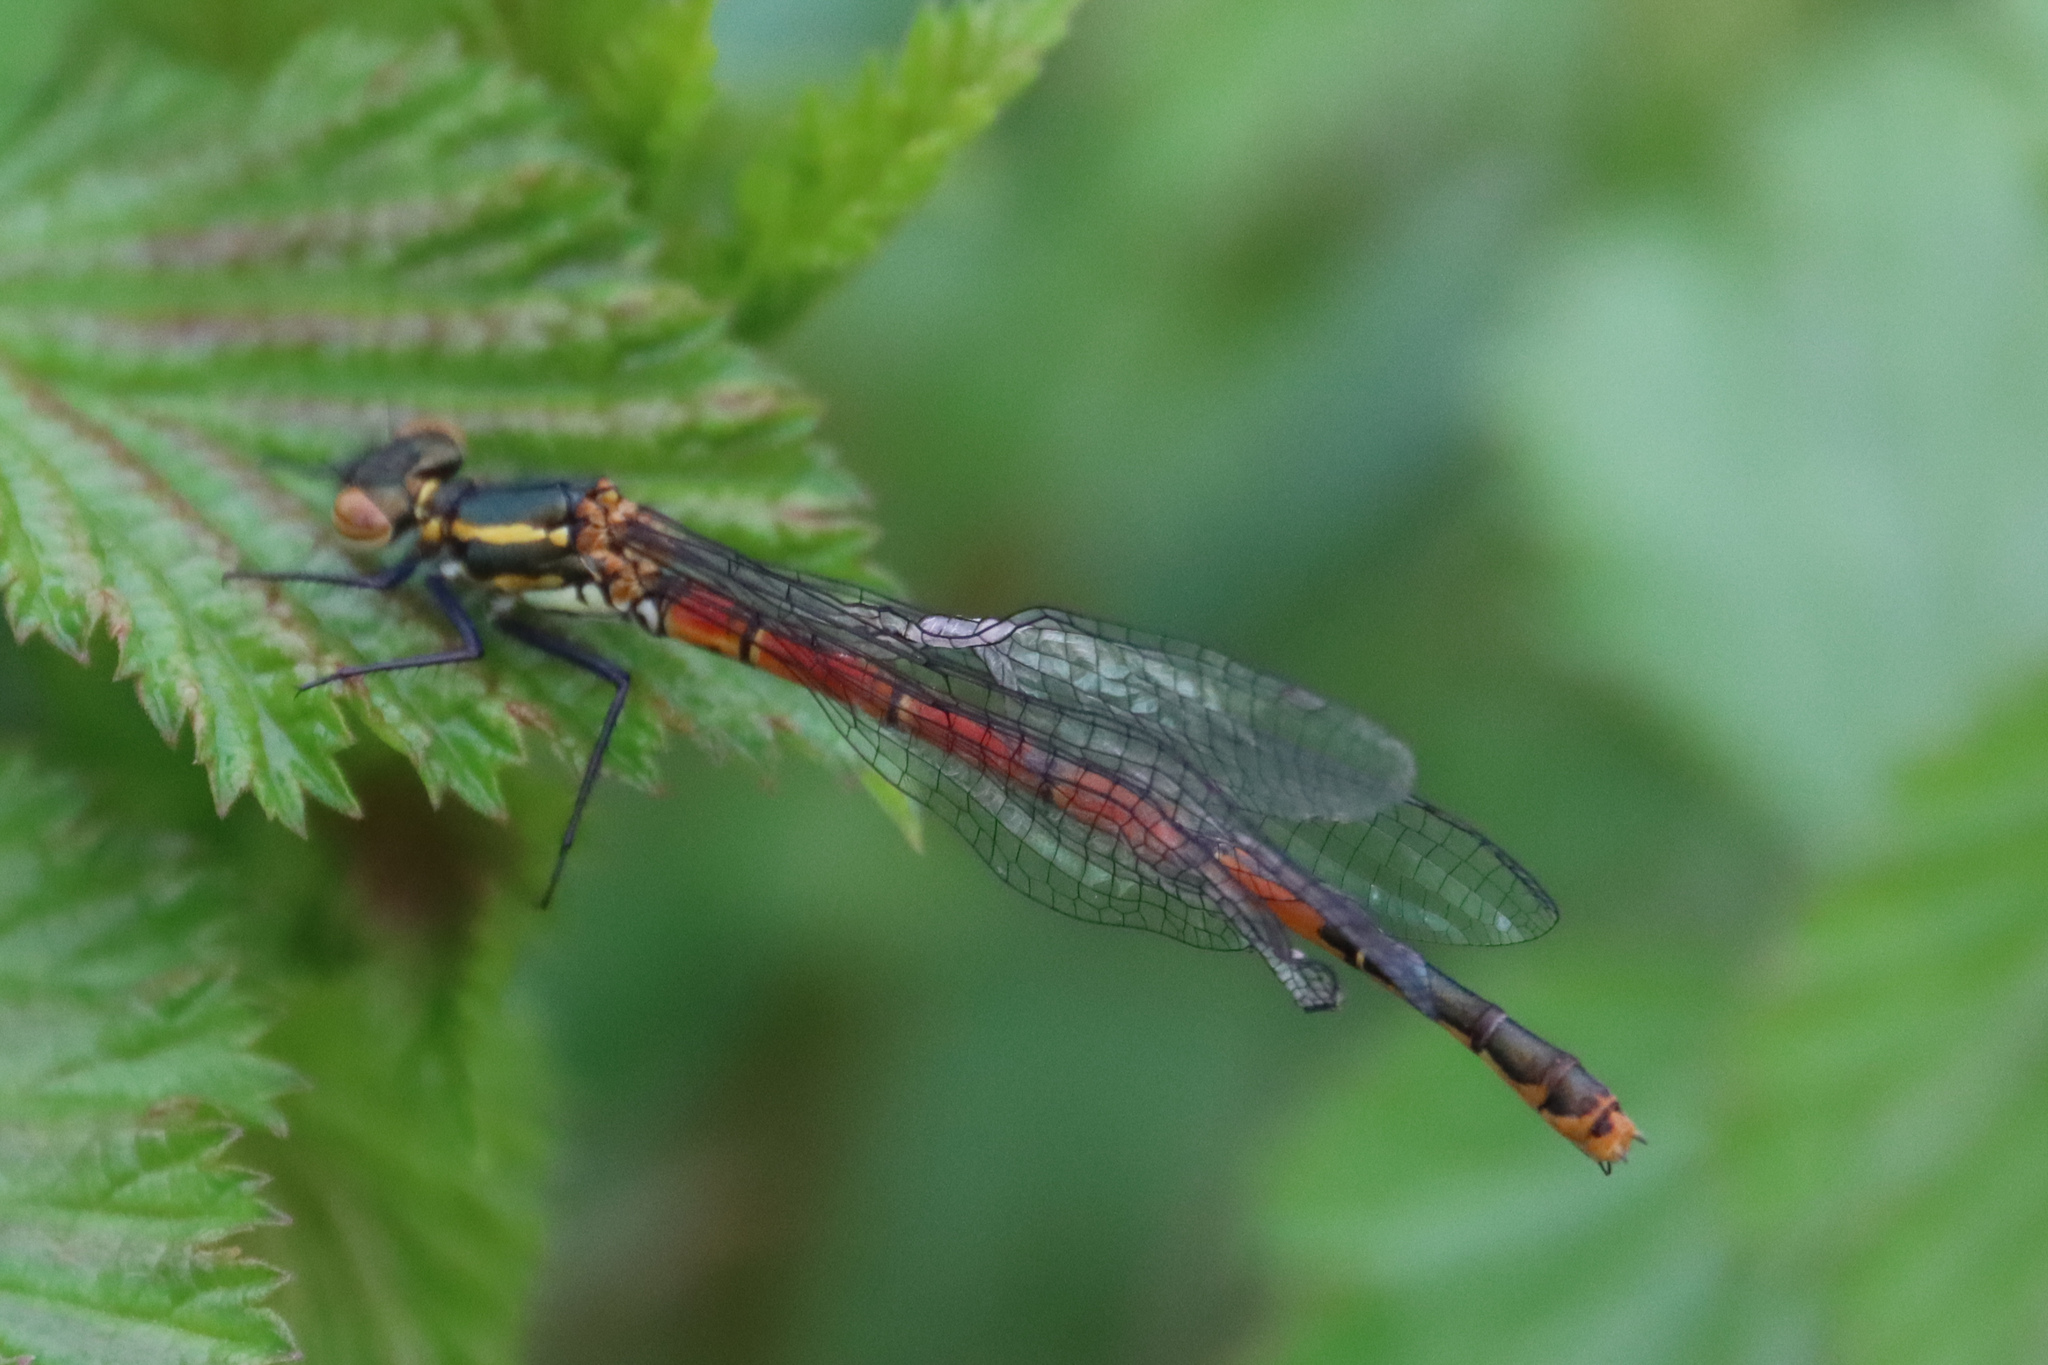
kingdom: Animalia
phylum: Arthropoda
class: Insecta
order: Odonata
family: Coenagrionidae
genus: Pyrrhosoma
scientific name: Pyrrhosoma nymphula
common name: Large red damsel
